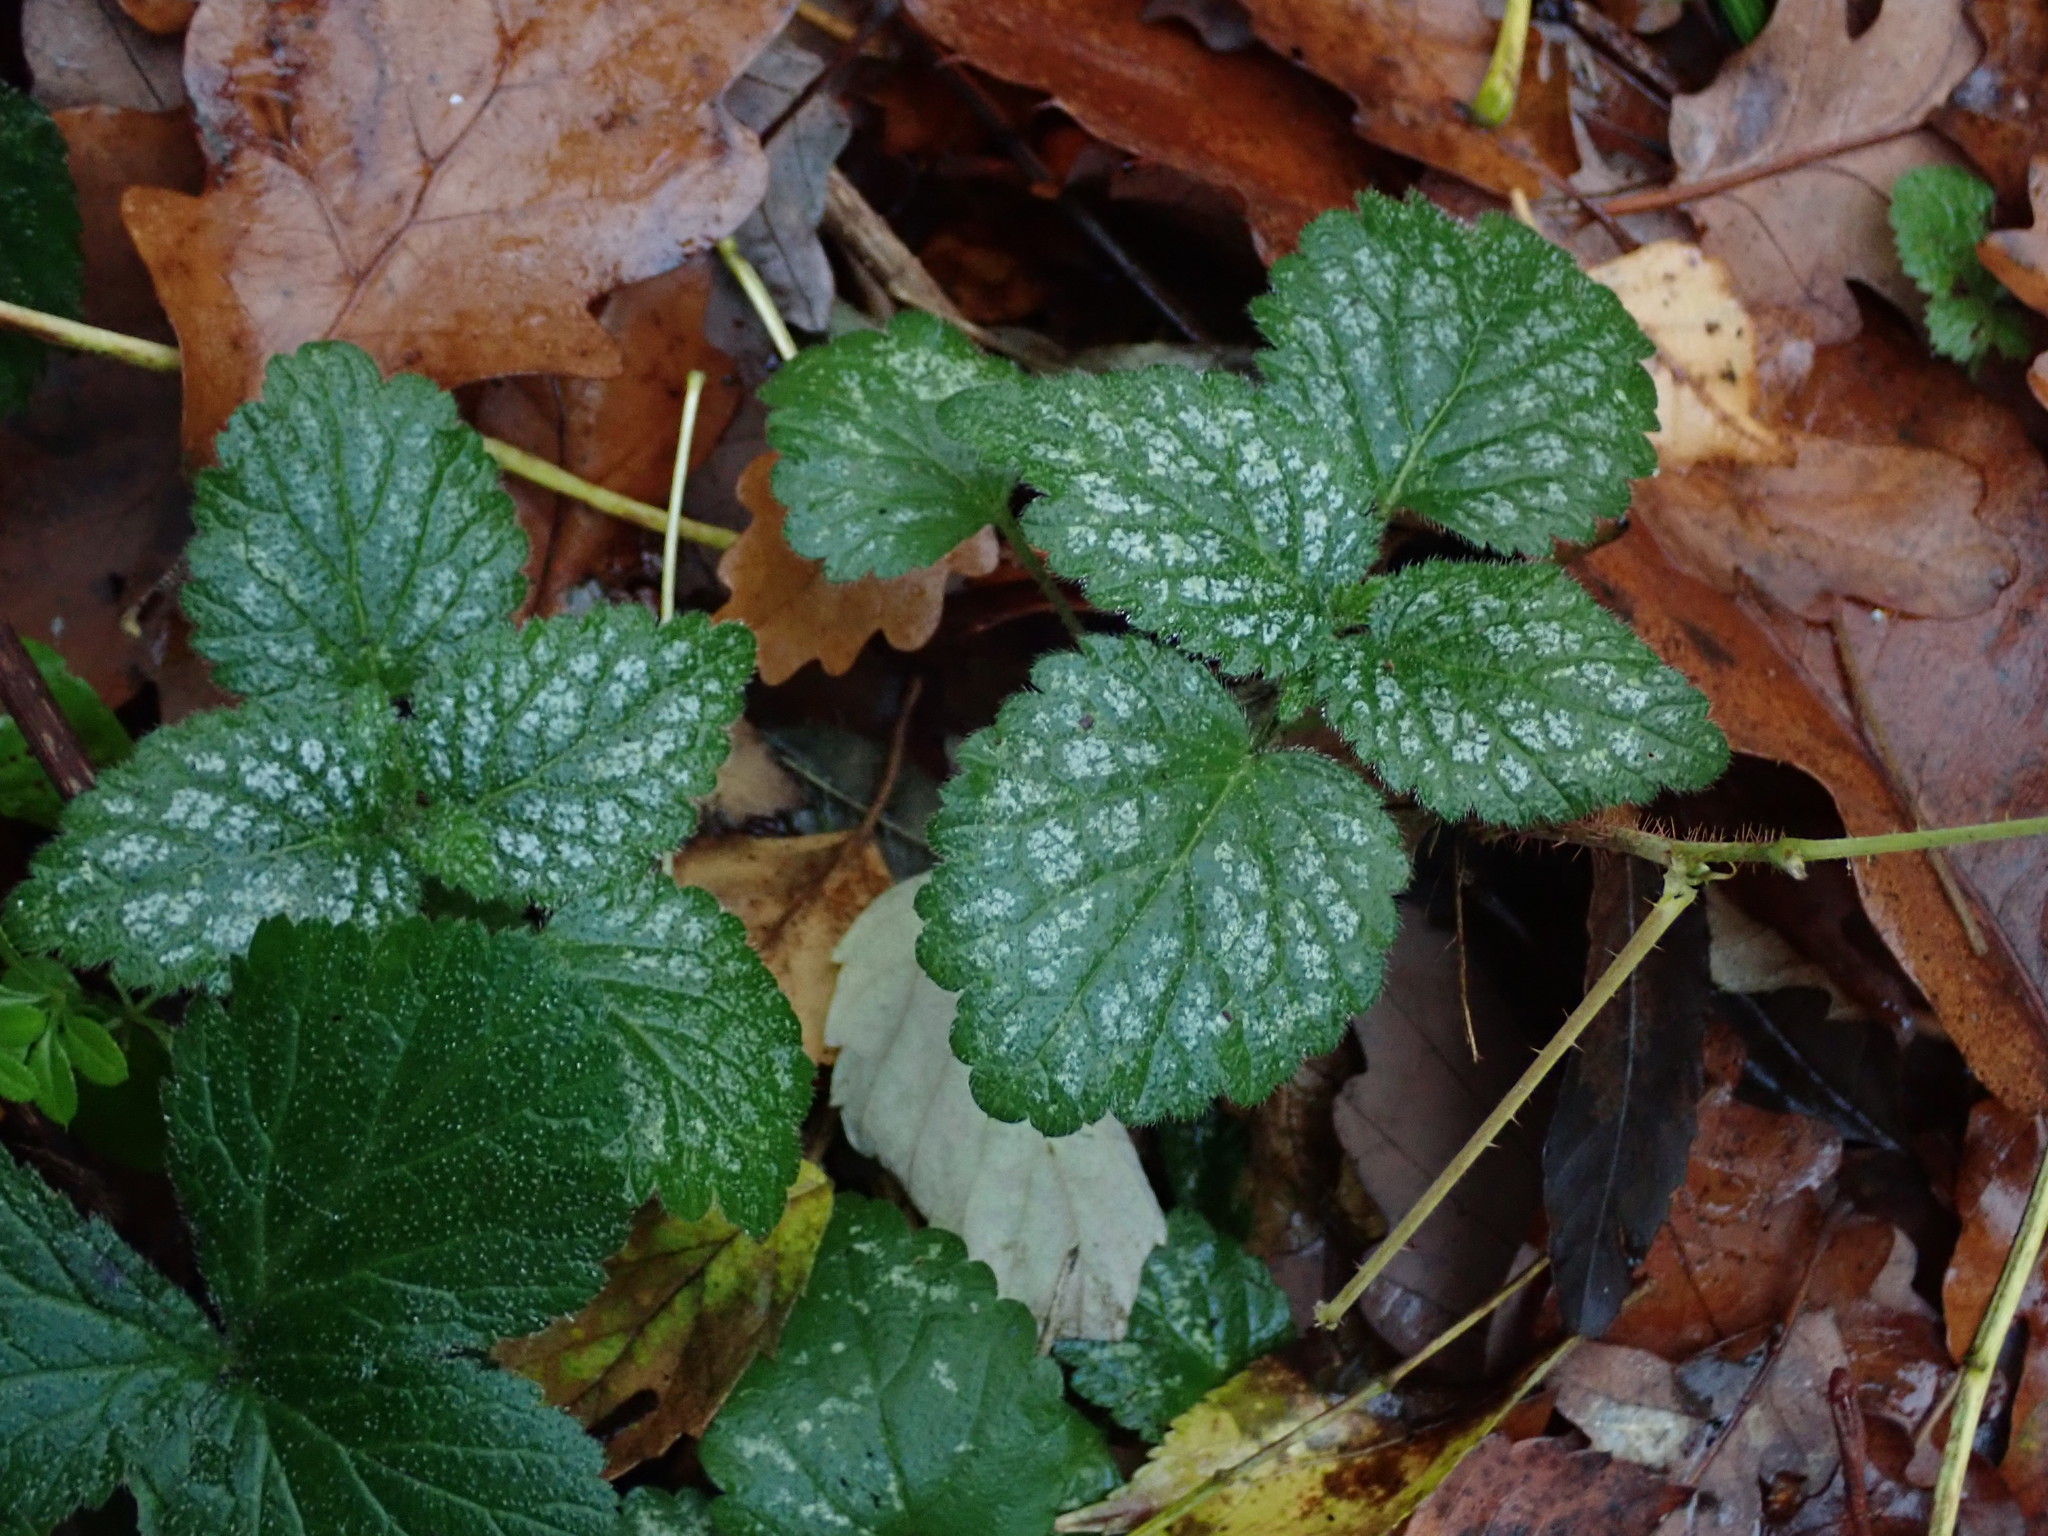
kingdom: Plantae
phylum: Tracheophyta
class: Magnoliopsida
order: Lamiales
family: Lamiaceae
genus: Lamium
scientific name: Lamium galeobdolon
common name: Yellow archangel
